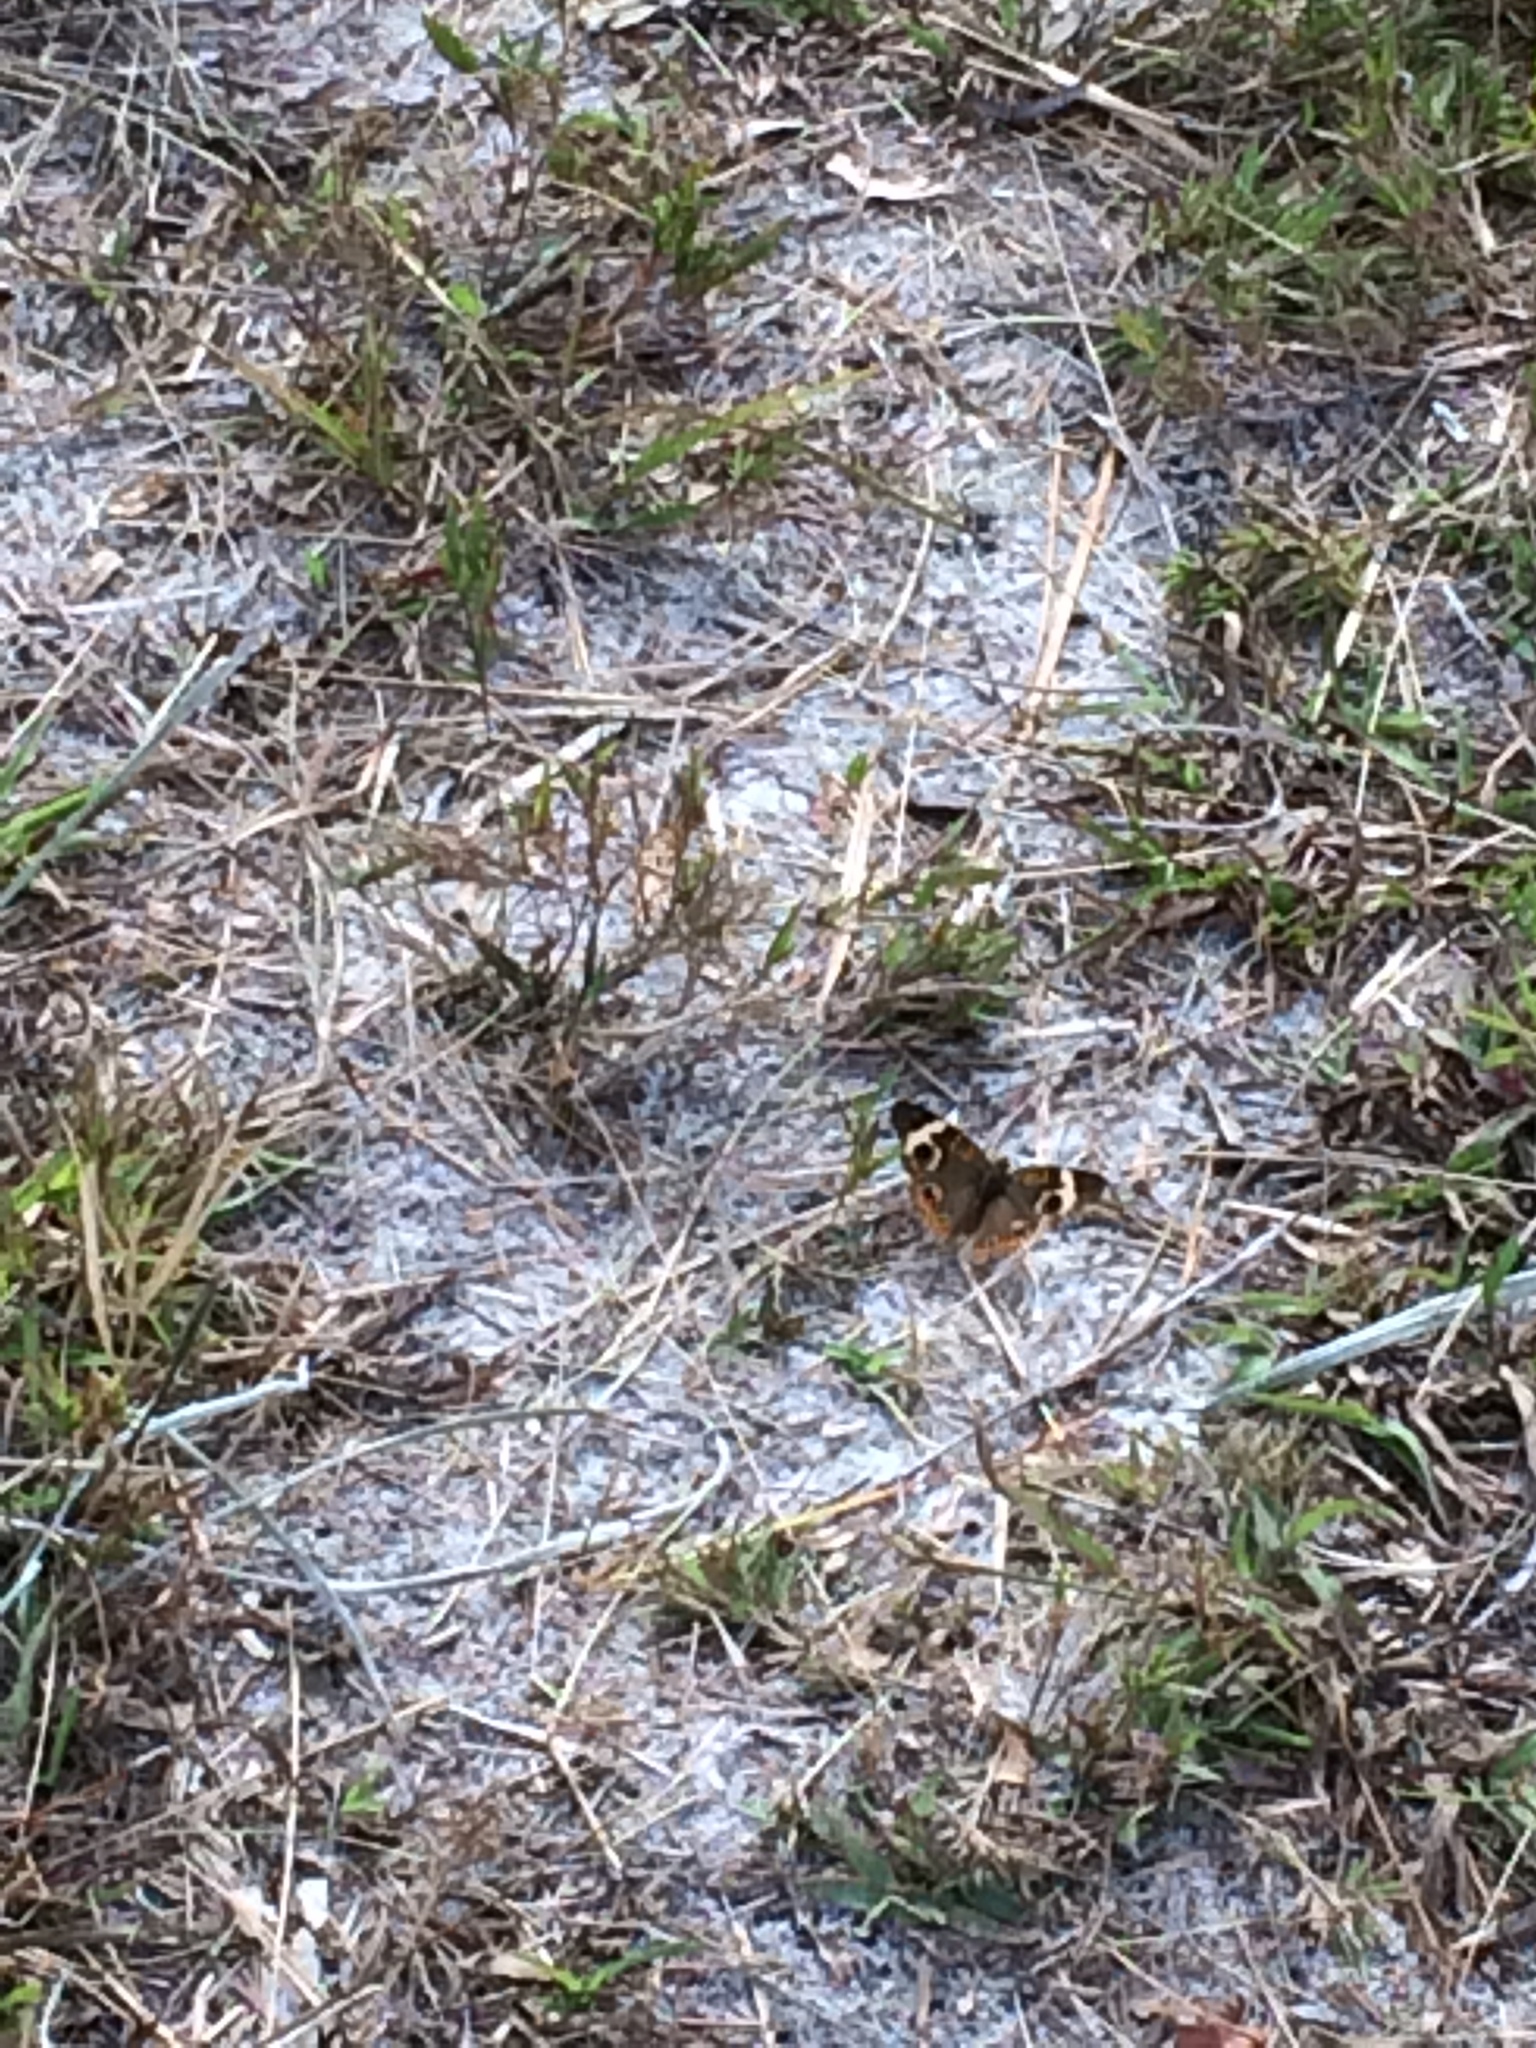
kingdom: Animalia
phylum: Arthropoda
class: Insecta
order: Lepidoptera
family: Nymphalidae
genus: Junonia
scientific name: Junonia coenia
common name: Common buckeye
